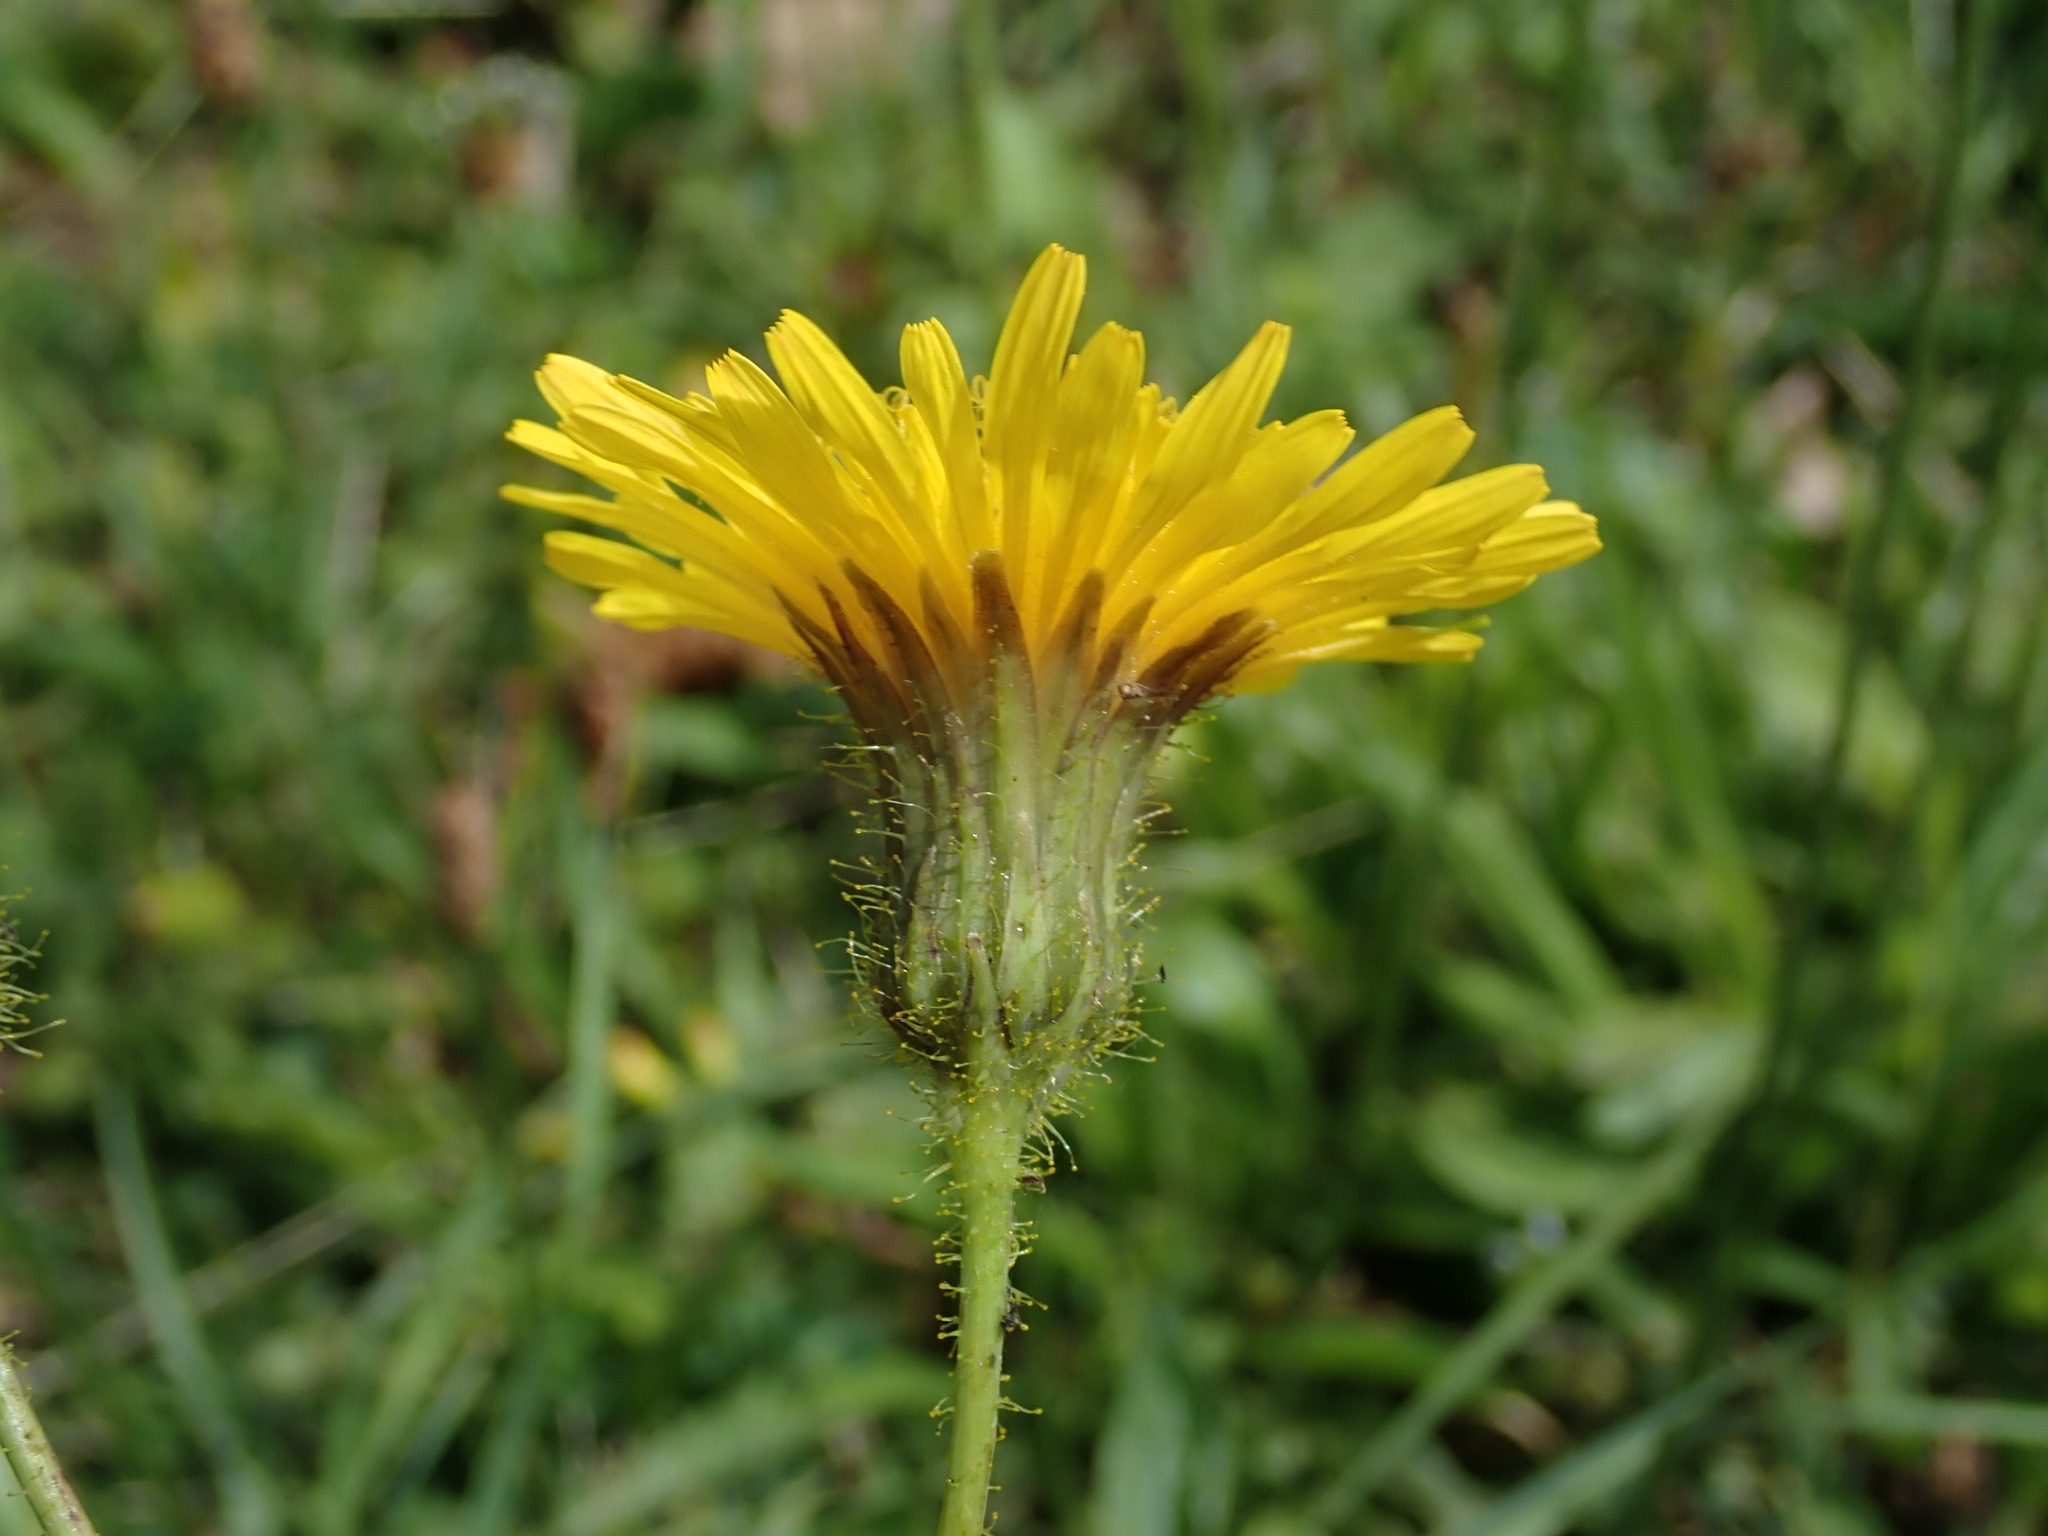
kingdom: Plantae
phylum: Tracheophyta
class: Magnoliopsida
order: Asterales
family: Asteraceae
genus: Sonchus
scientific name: Sonchus arvensis
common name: Perennial sow-thistle
